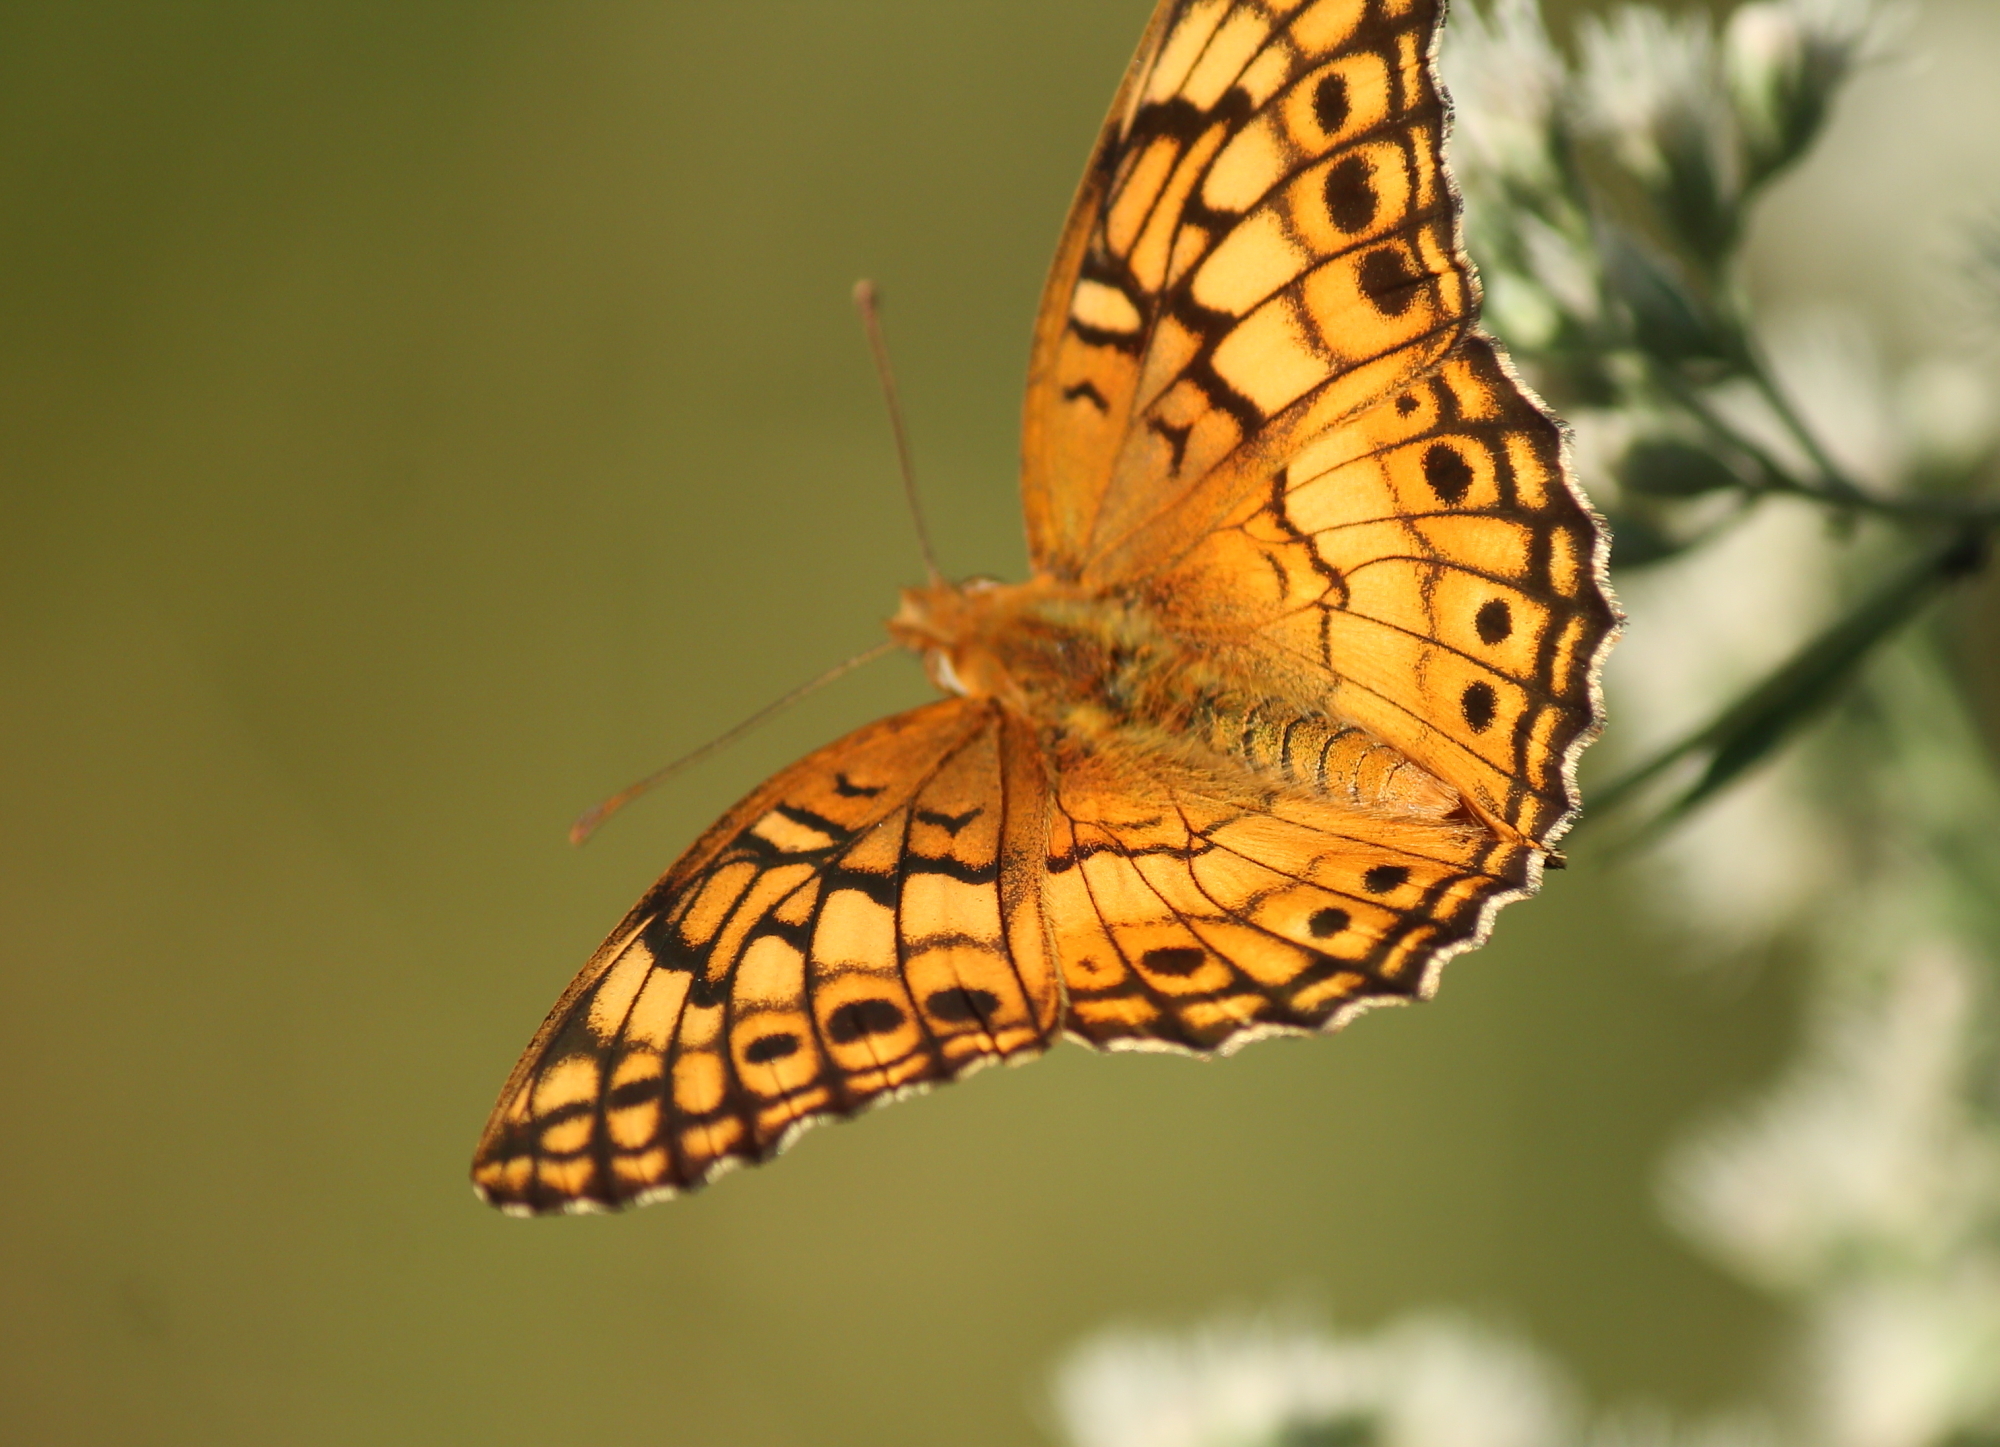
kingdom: Animalia
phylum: Arthropoda
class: Insecta
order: Lepidoptera
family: Nymphalidae
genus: Euptoieta
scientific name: Euptoieta claudia
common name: Variegated fritillary
